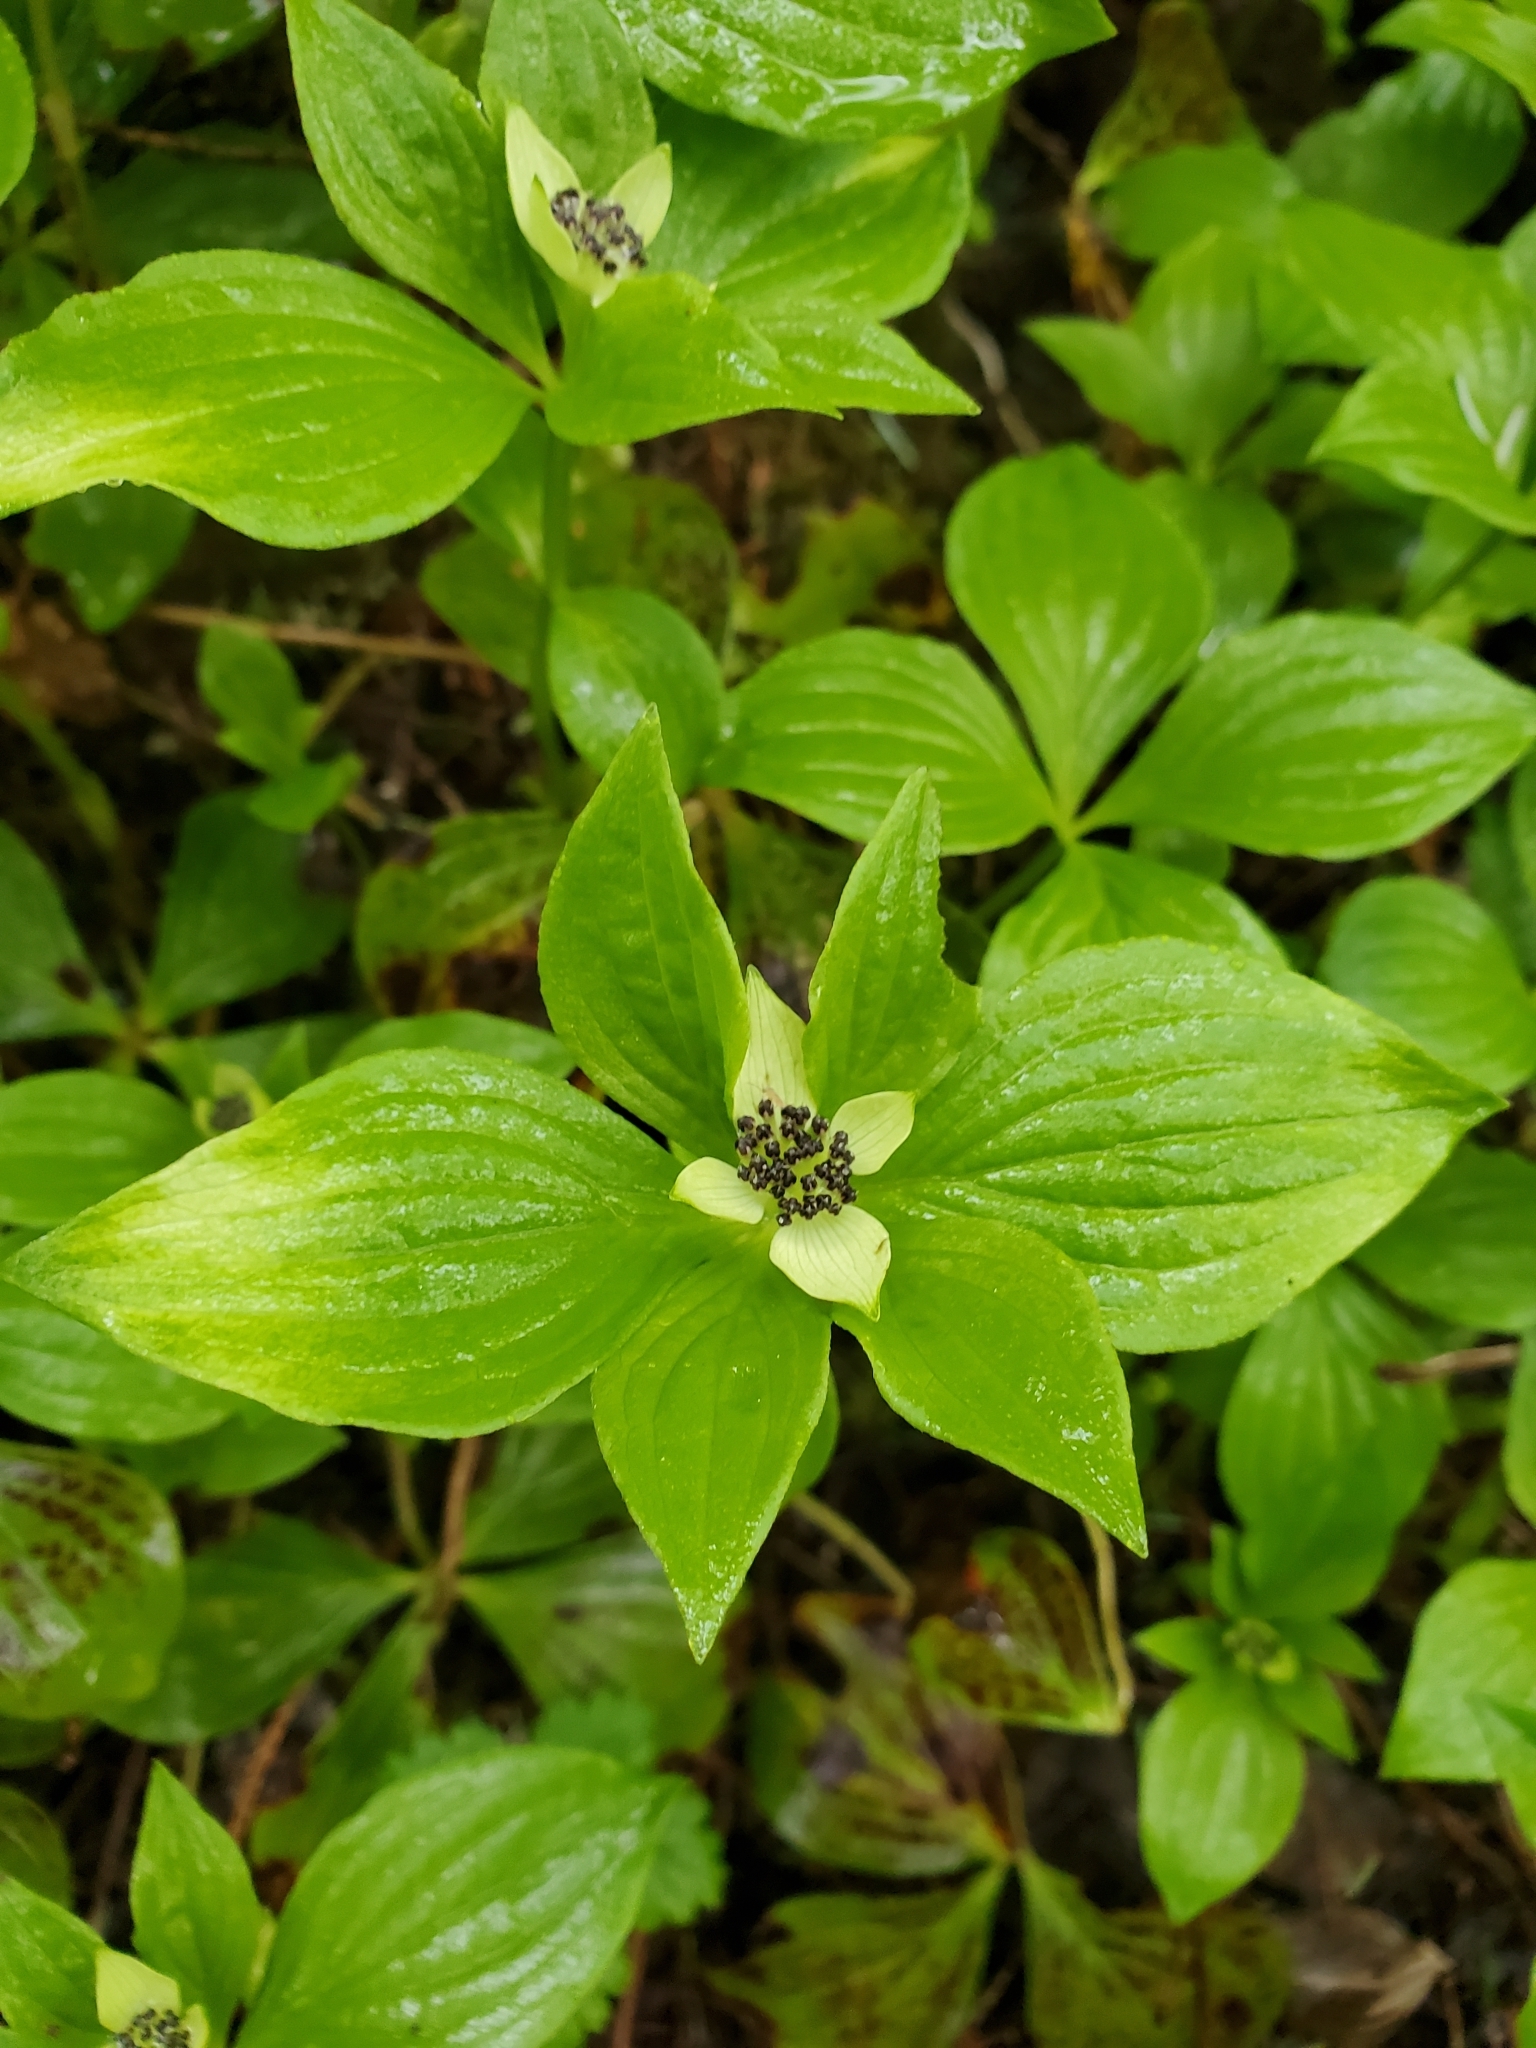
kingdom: Plantae
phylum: Tracheophyta
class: Magnoliopsida
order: Cornales
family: Cornaceae
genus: Cornus
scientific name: Cornus unalaschkensis
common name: Alaska bunchberry
